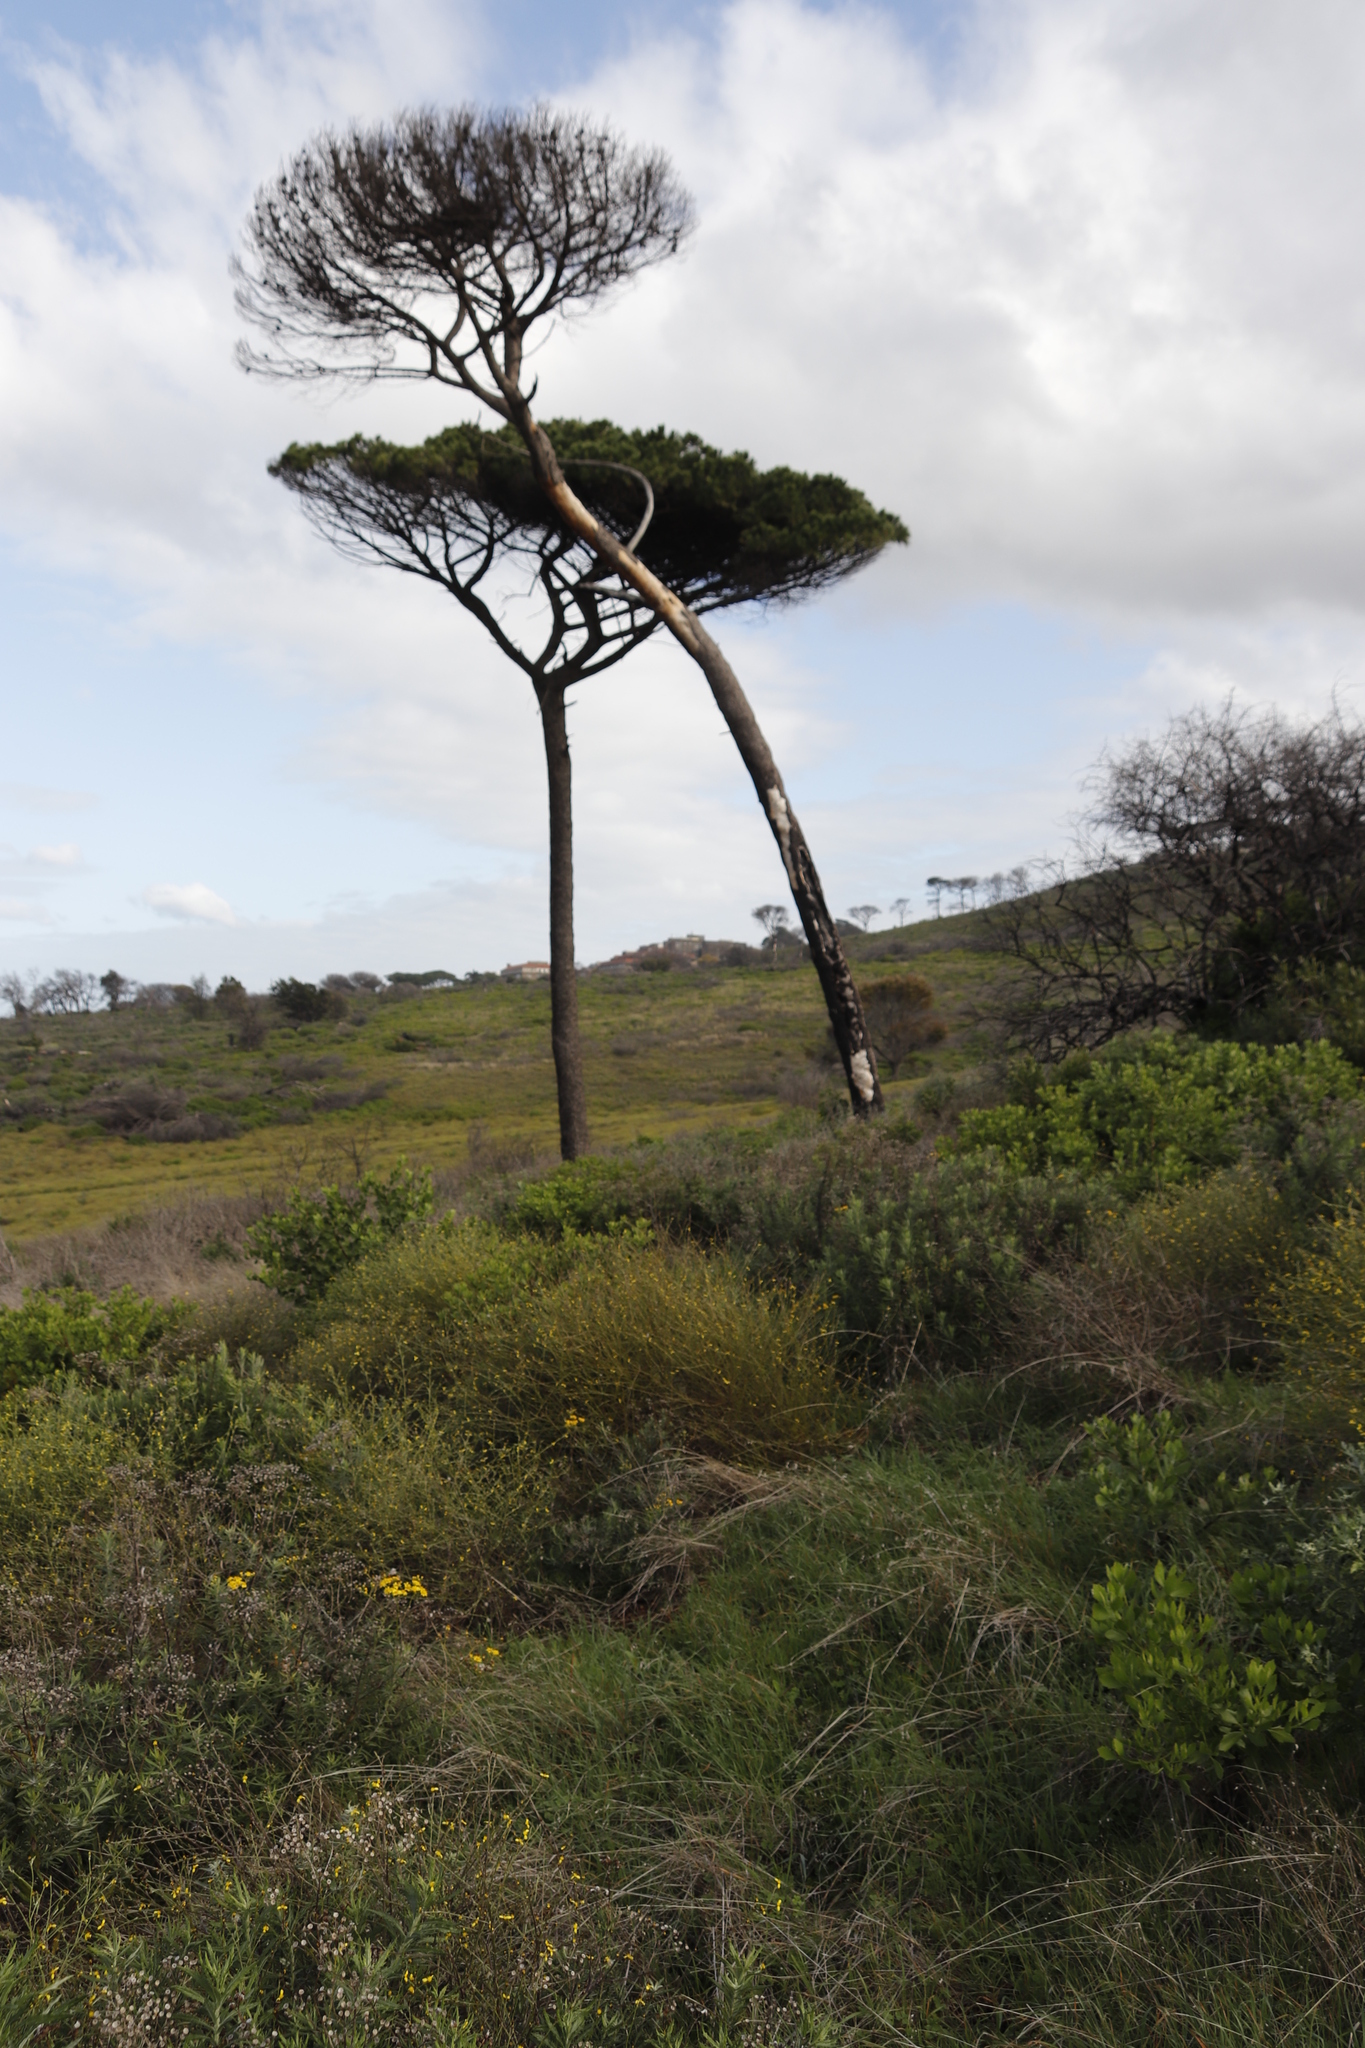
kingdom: Plantae
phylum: Tracheophyta
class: Pinopsida
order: Pinales
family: Pinaceae
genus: Pinus
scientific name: Pinus pinea
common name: Italian stone pine
